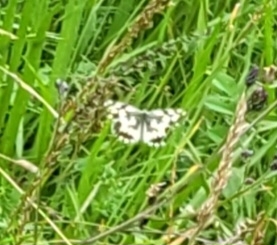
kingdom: Animalia
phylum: Arthropoda
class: Insecta
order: Lepidoptera
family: Nymphalidae
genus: Melanargia
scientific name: Melanargia galathea
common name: Marbled white
